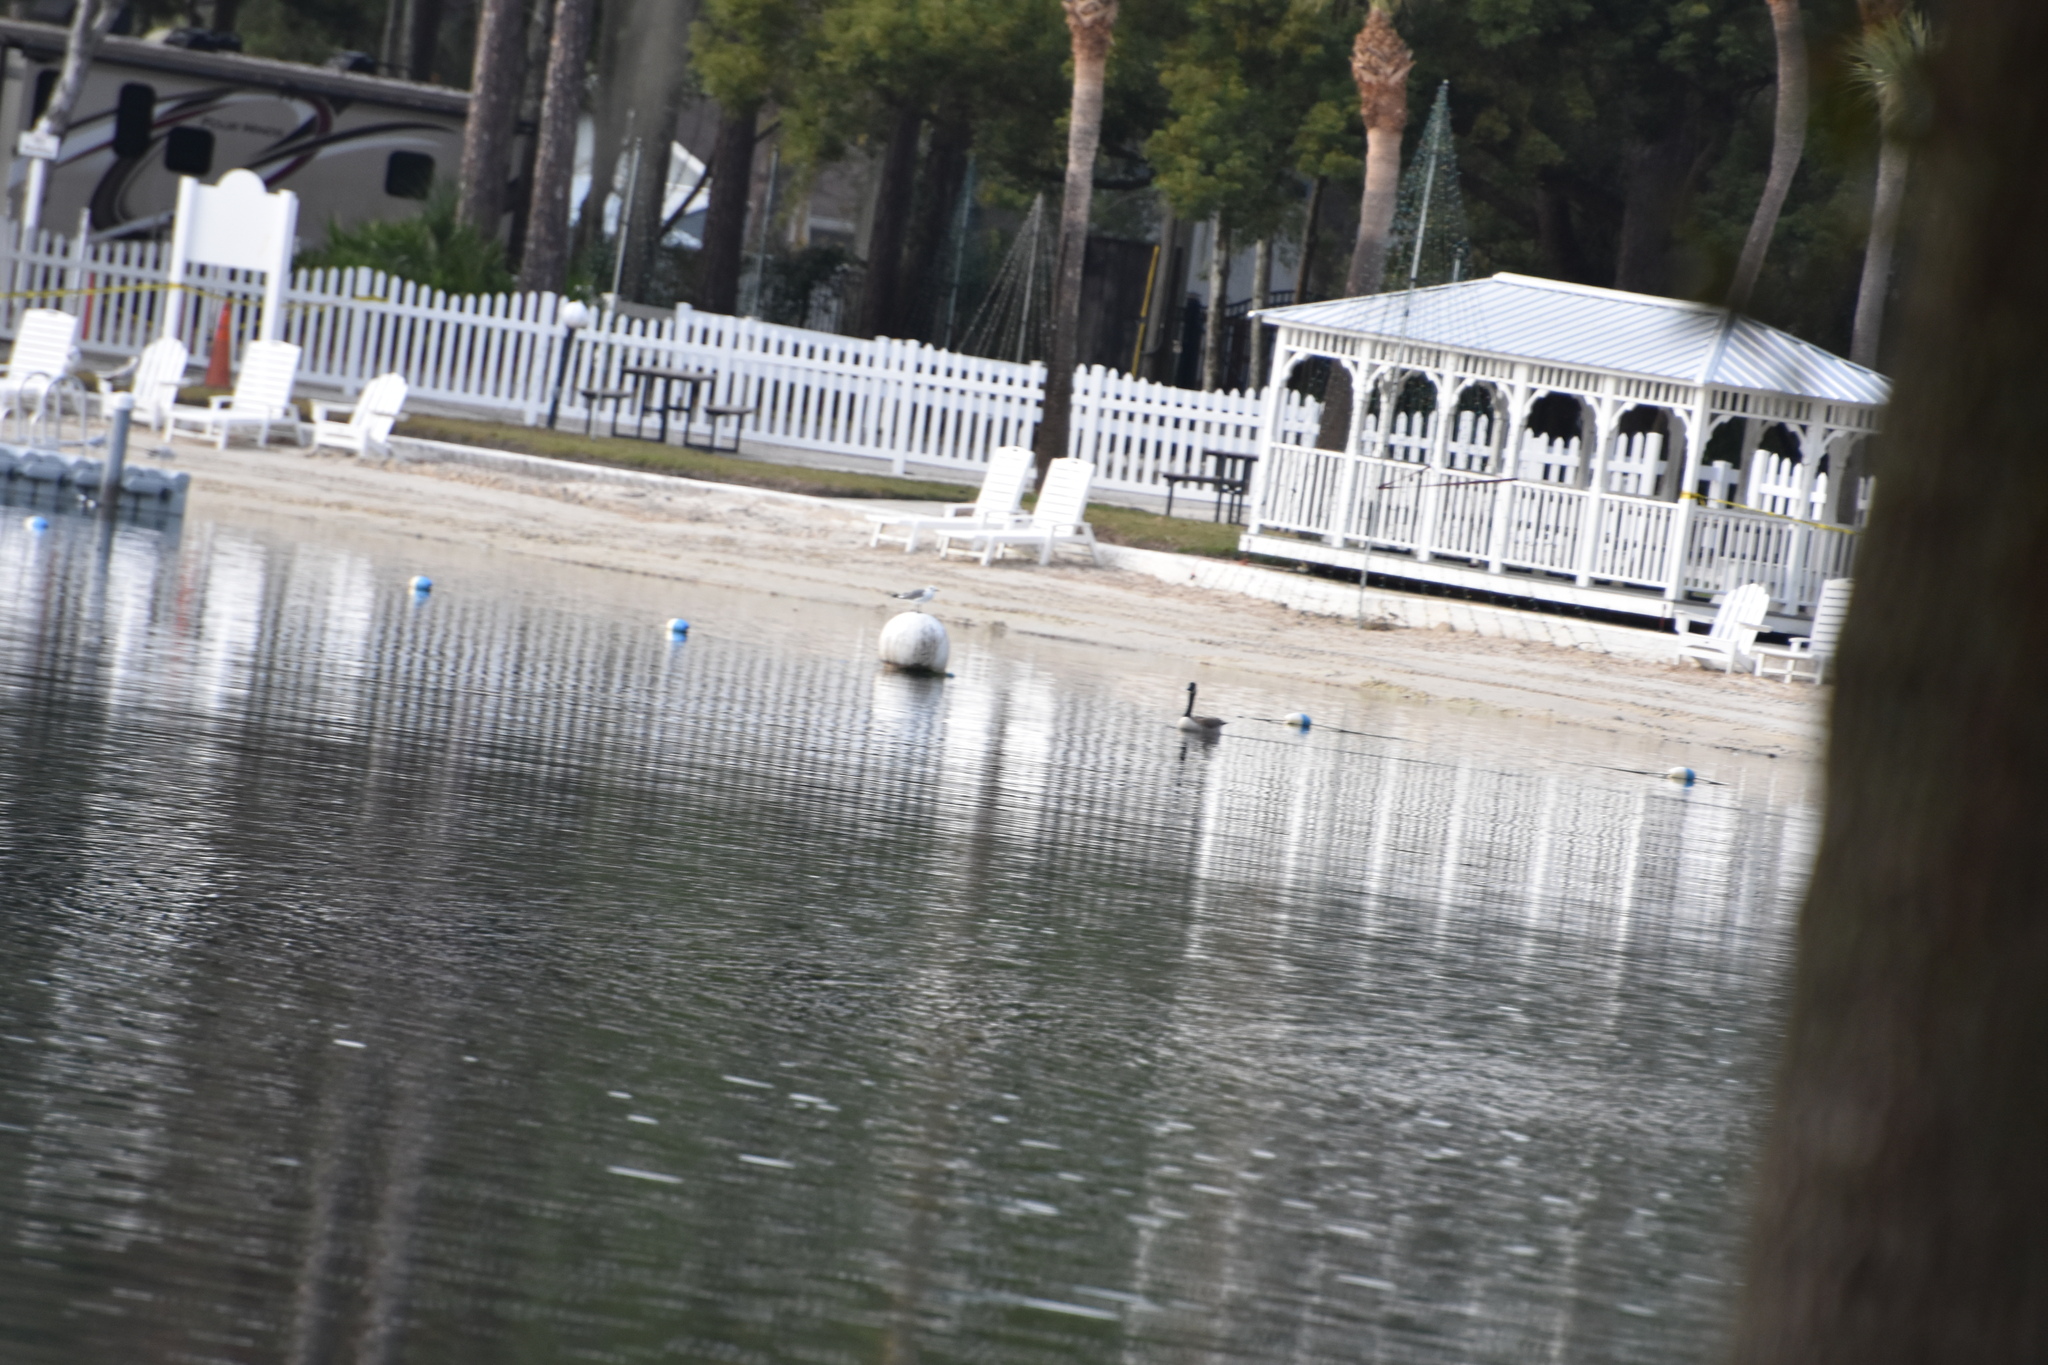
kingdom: Animalia
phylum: Chordata
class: Aves
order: Anseriformes
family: Anatidae
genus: Branta
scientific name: Branta canadensis
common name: Canada goose
